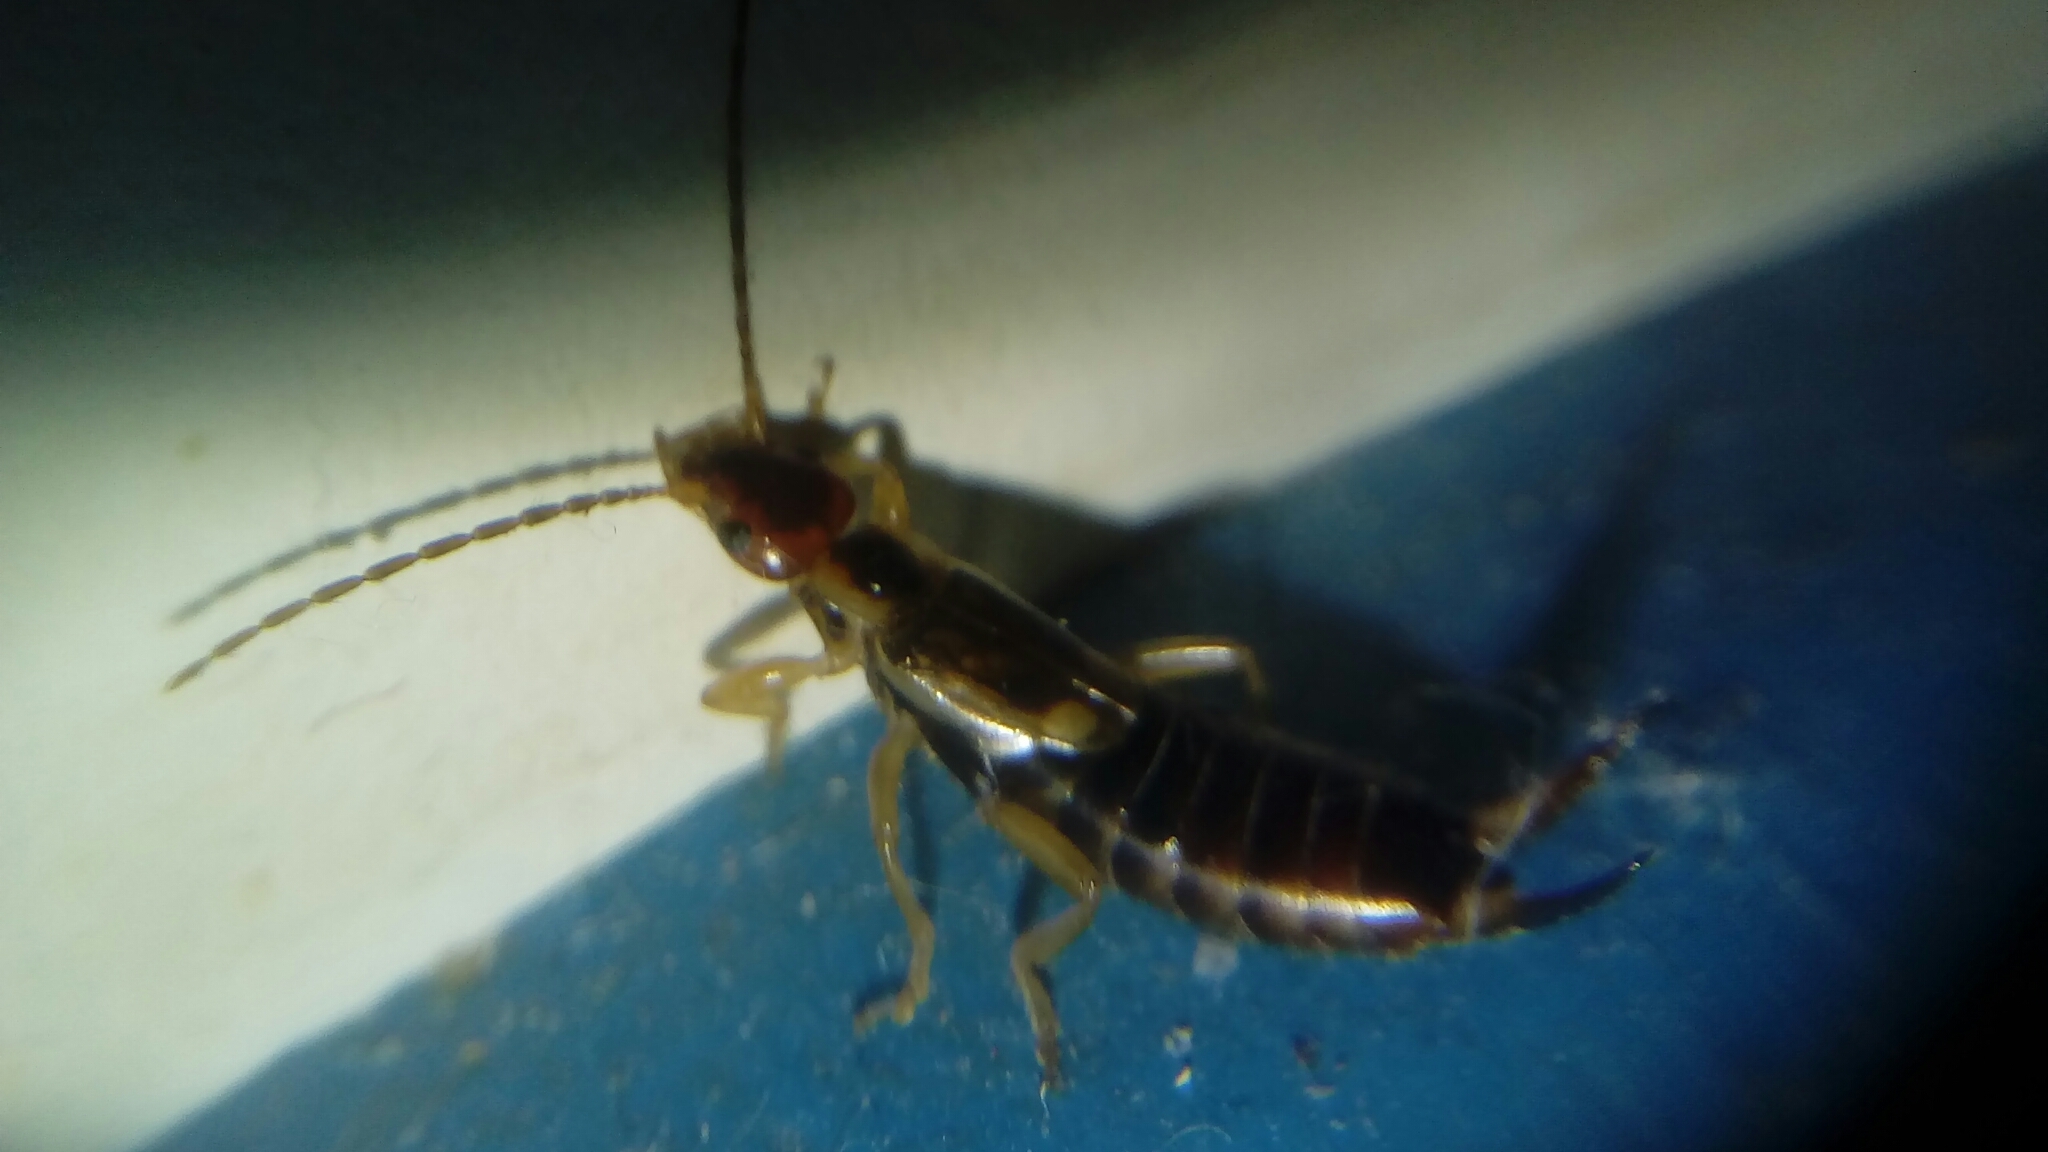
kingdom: Animalia
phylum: Arthropoda
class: Insecta
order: Dermaptera
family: Forficulidae
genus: Forficula
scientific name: Forficula
